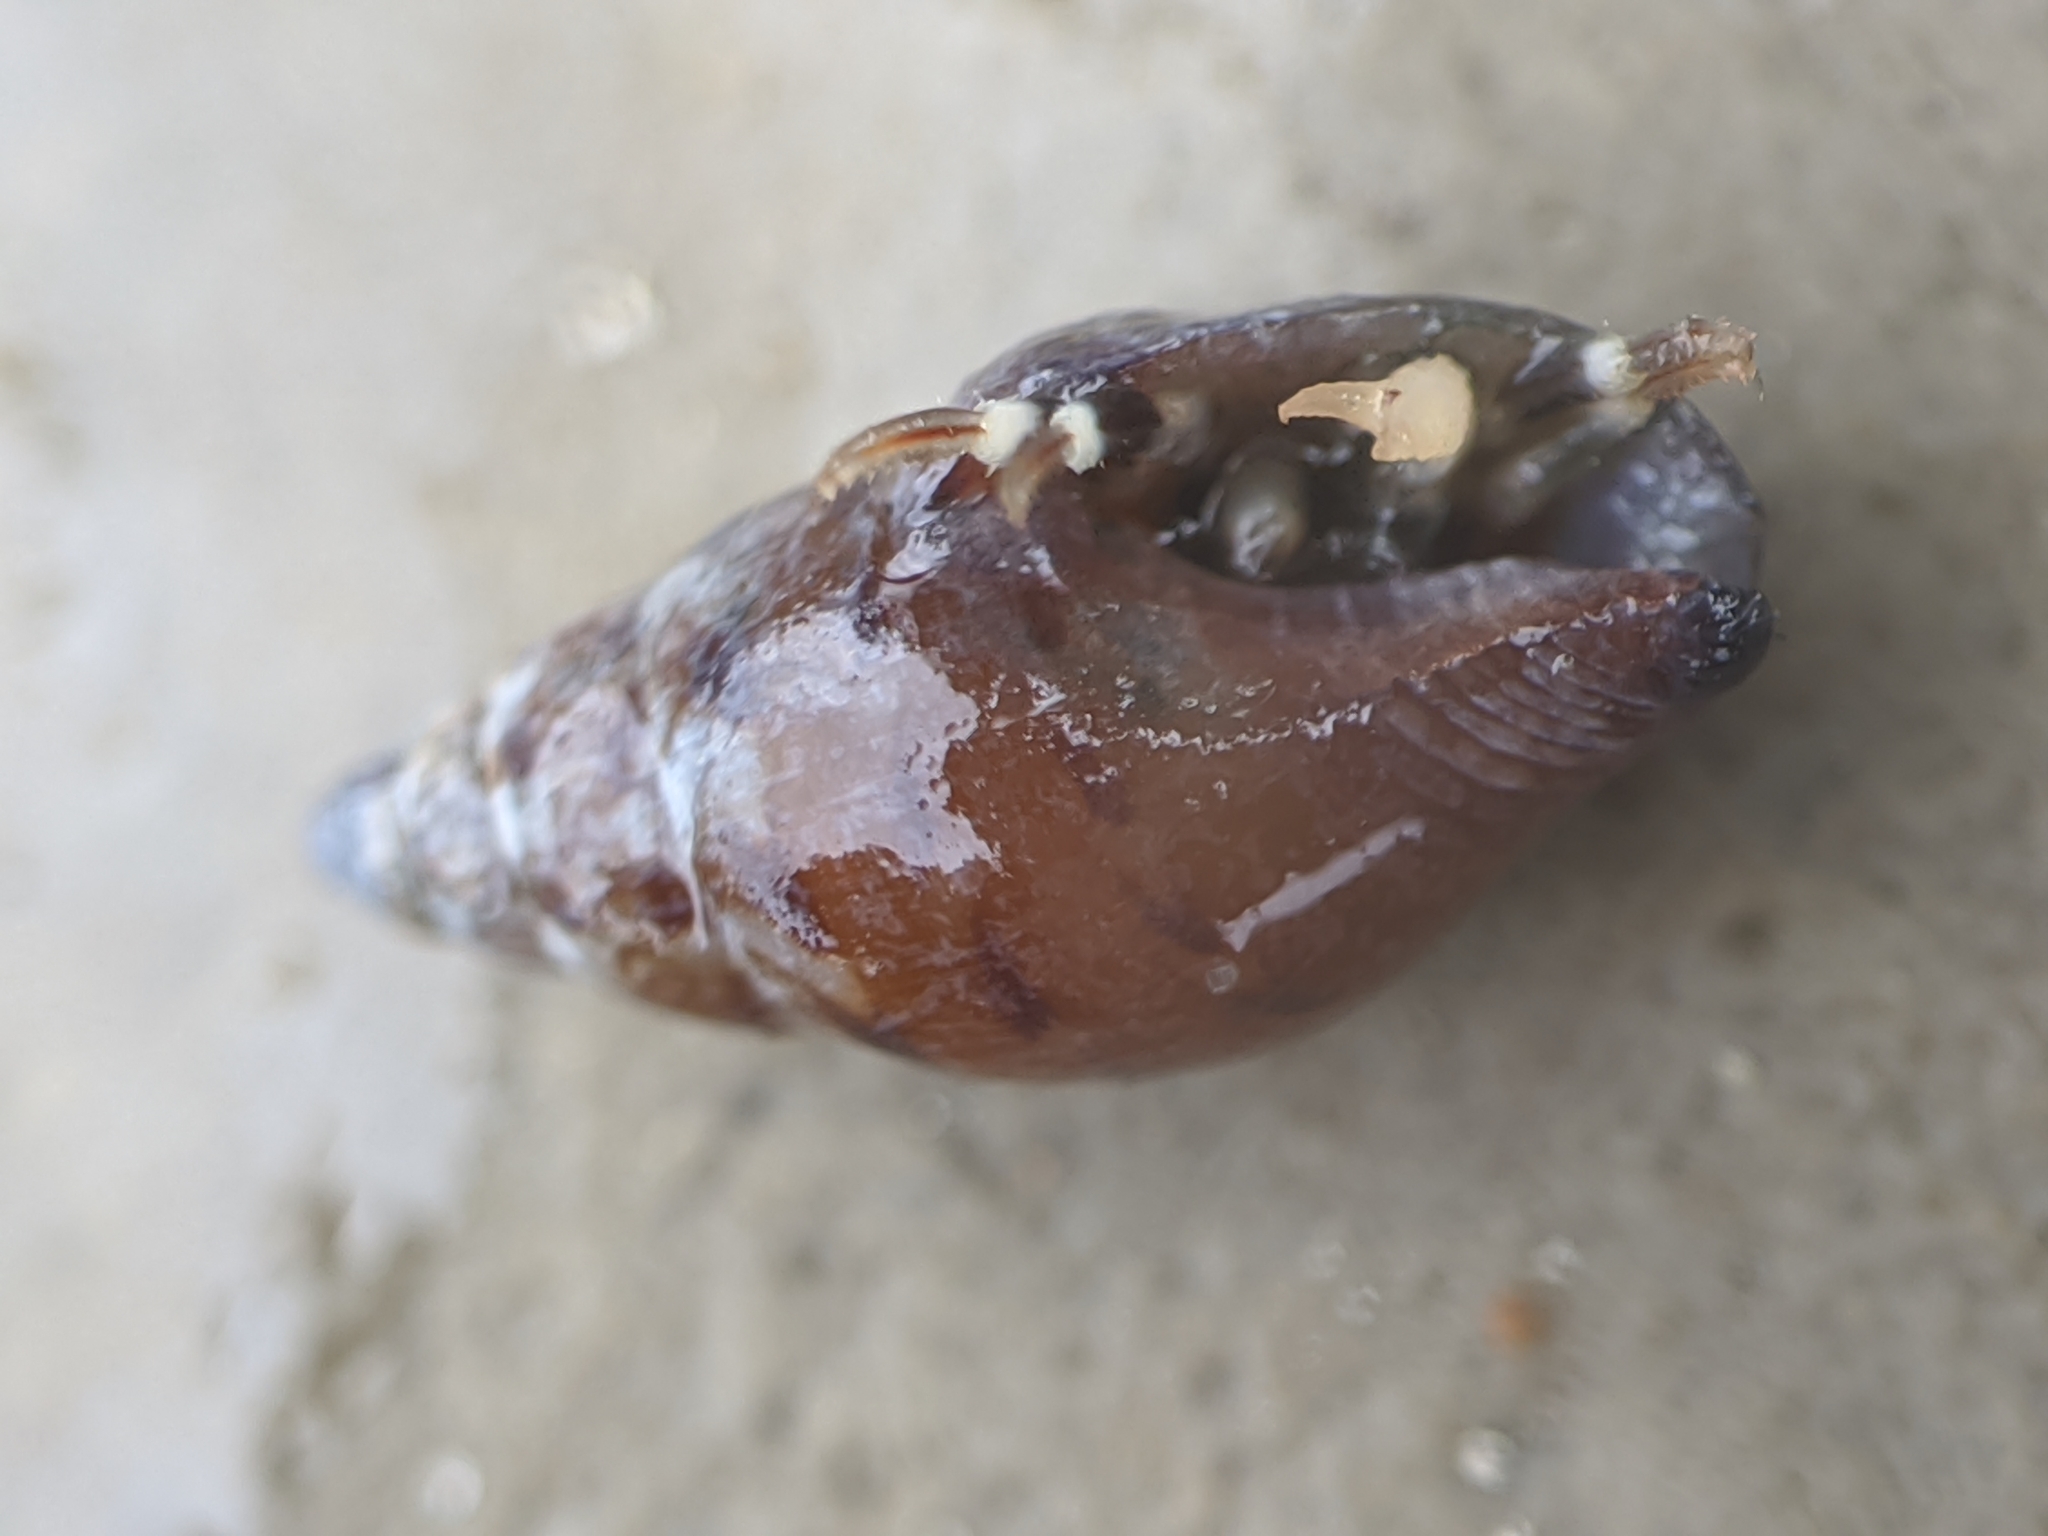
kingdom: Animalia
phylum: Mollusca
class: Gastropoda
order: Neogastropoda
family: Columbellidae
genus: Alia
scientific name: Alia carinata
